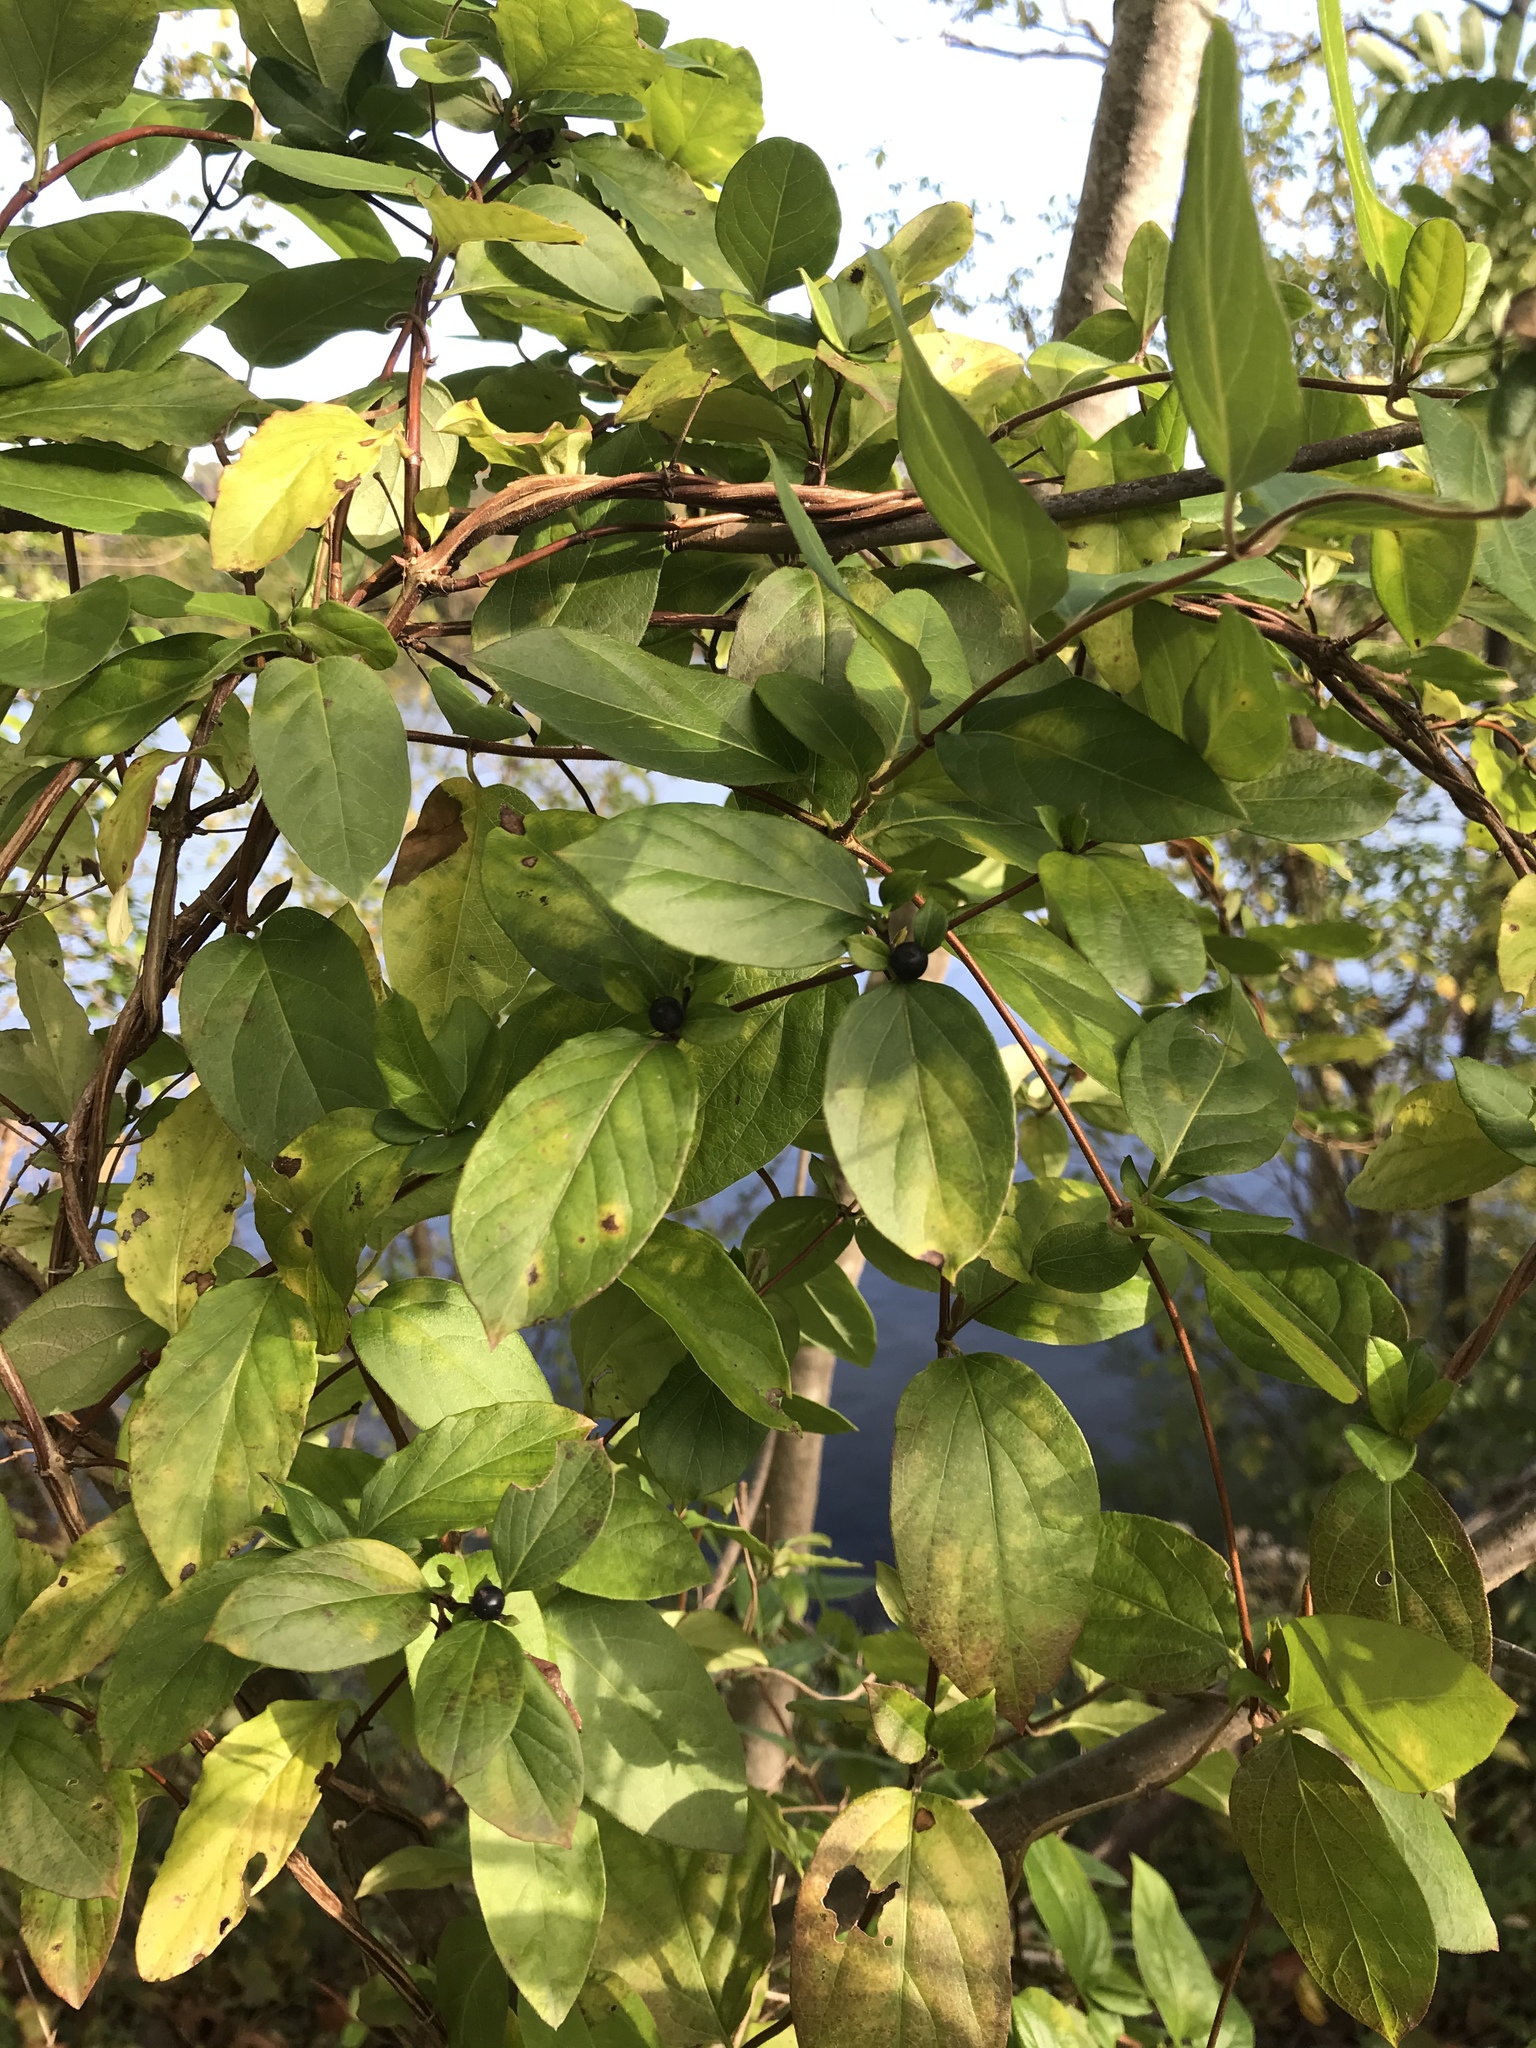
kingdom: Plantae
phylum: Tracheophyta
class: Magnoliopsida
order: Dipsacales
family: Caprifoliaceae
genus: Lonicera
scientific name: Lonicera japonica
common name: Japanese honeysuckle
